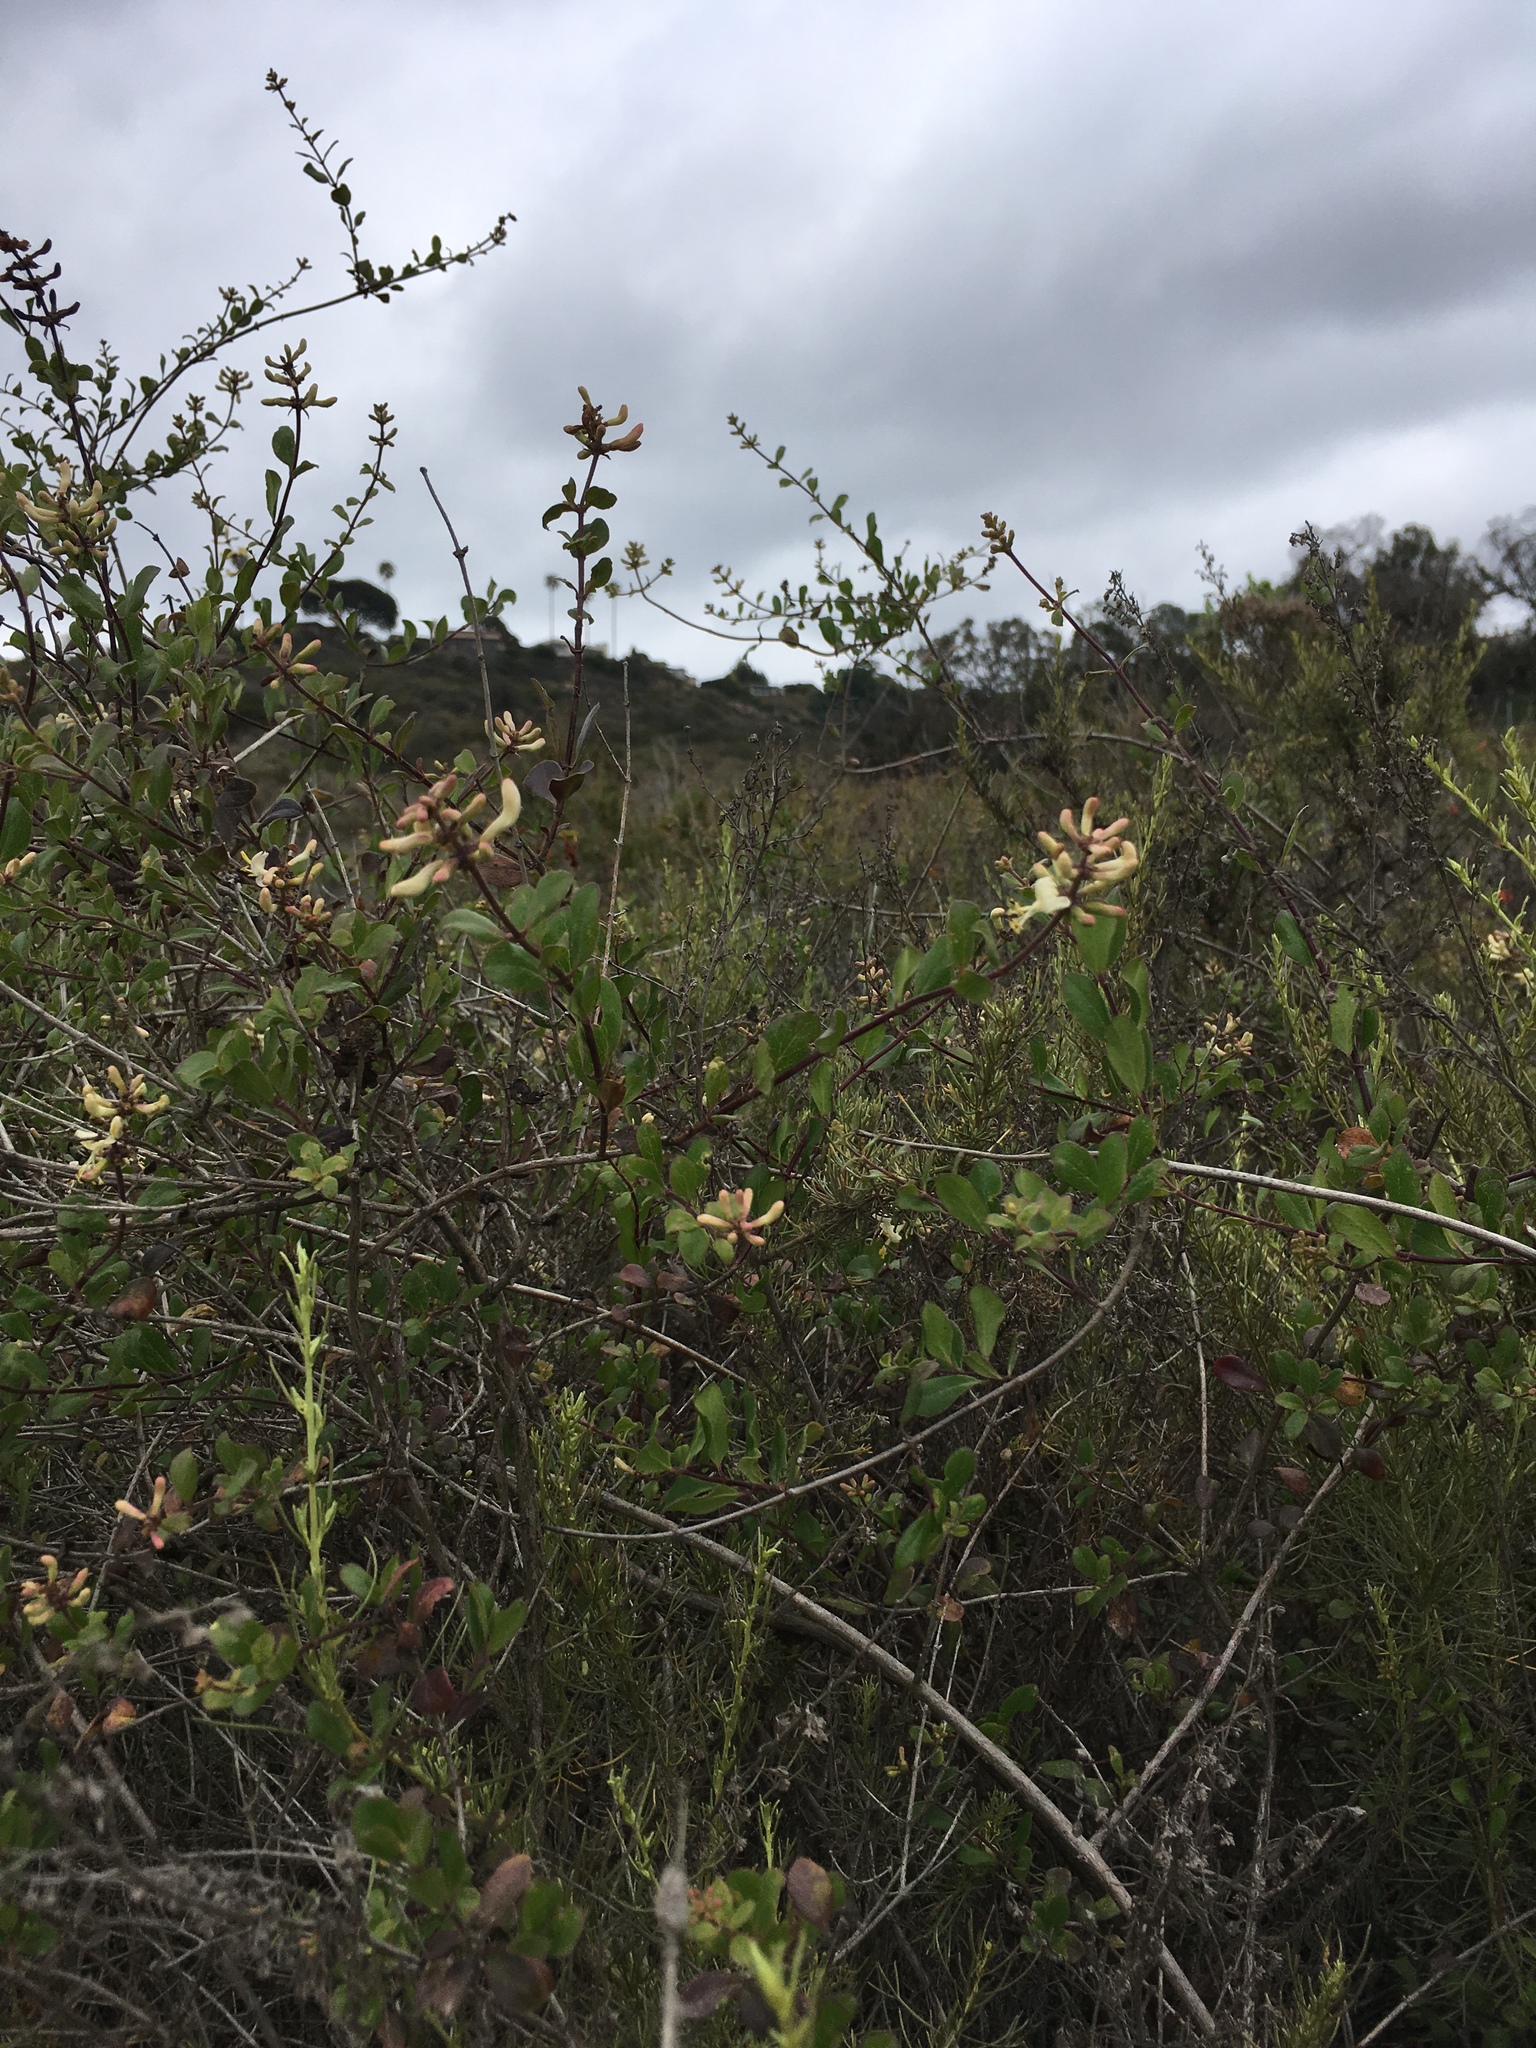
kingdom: Plantae
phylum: Tracheophyta
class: Magnoliopsida
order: Dipsacales
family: Caprifoliaceae
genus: Lonicera
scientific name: Lonicera subspicata
